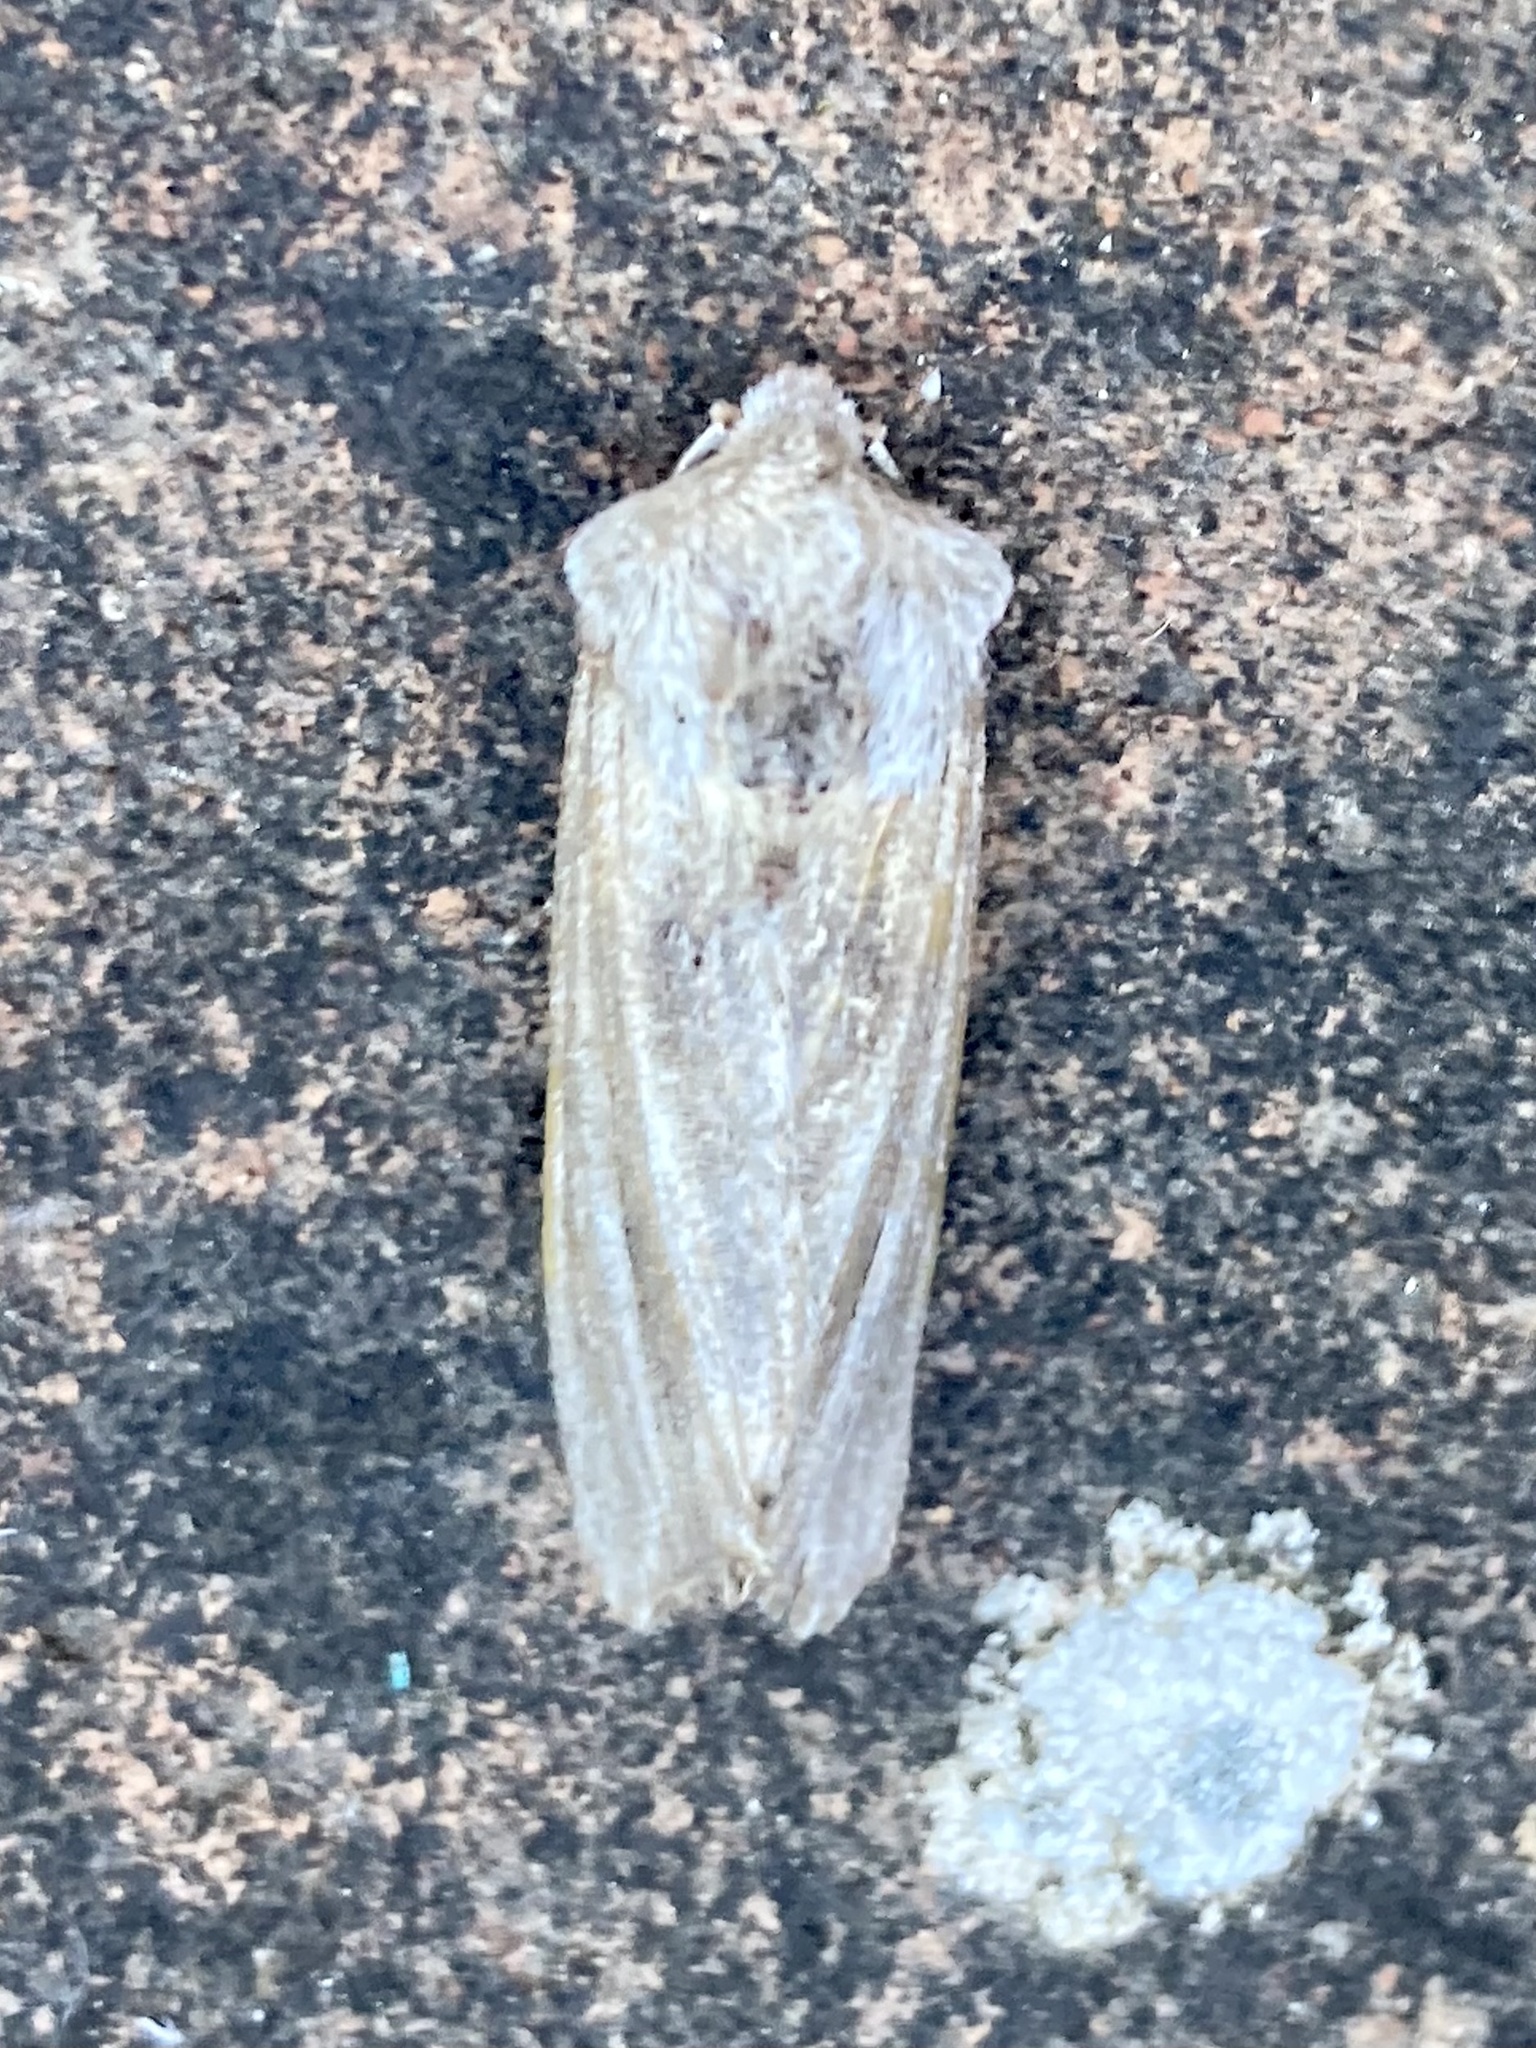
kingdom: Animalia
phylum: Arthropoda
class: Insecta
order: Lepidoptera
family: Noctuidae
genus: Egira
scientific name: Egira conspicillaris
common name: Silver cloud
